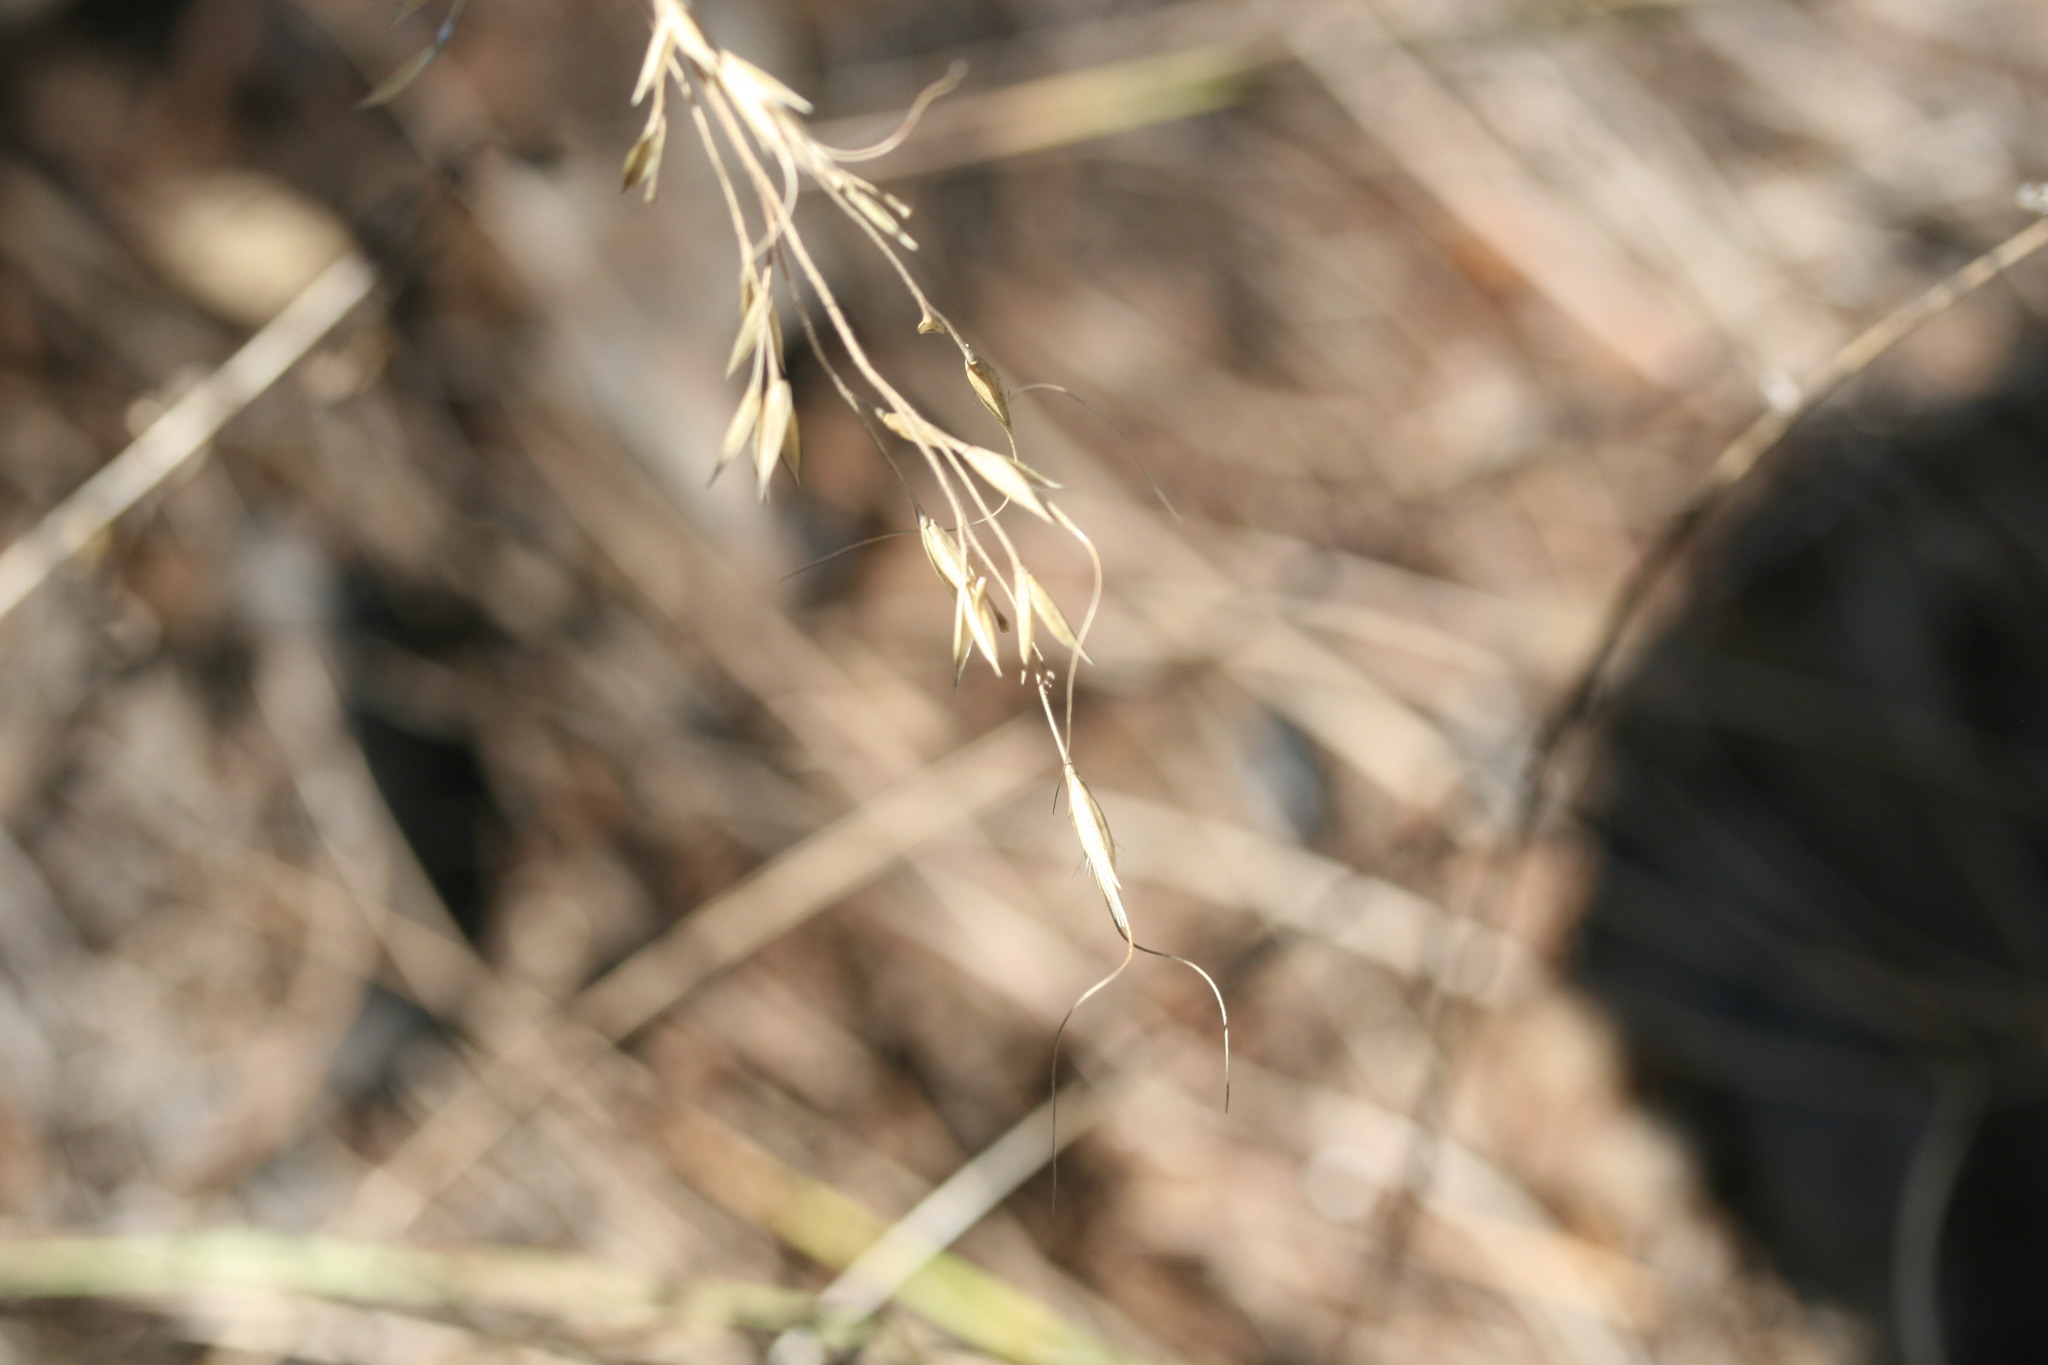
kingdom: Plantae
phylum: Tracheophyta
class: Liliopsida
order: Poales
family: Poaceae
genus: Eriachne
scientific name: Eriachne pauciflora
